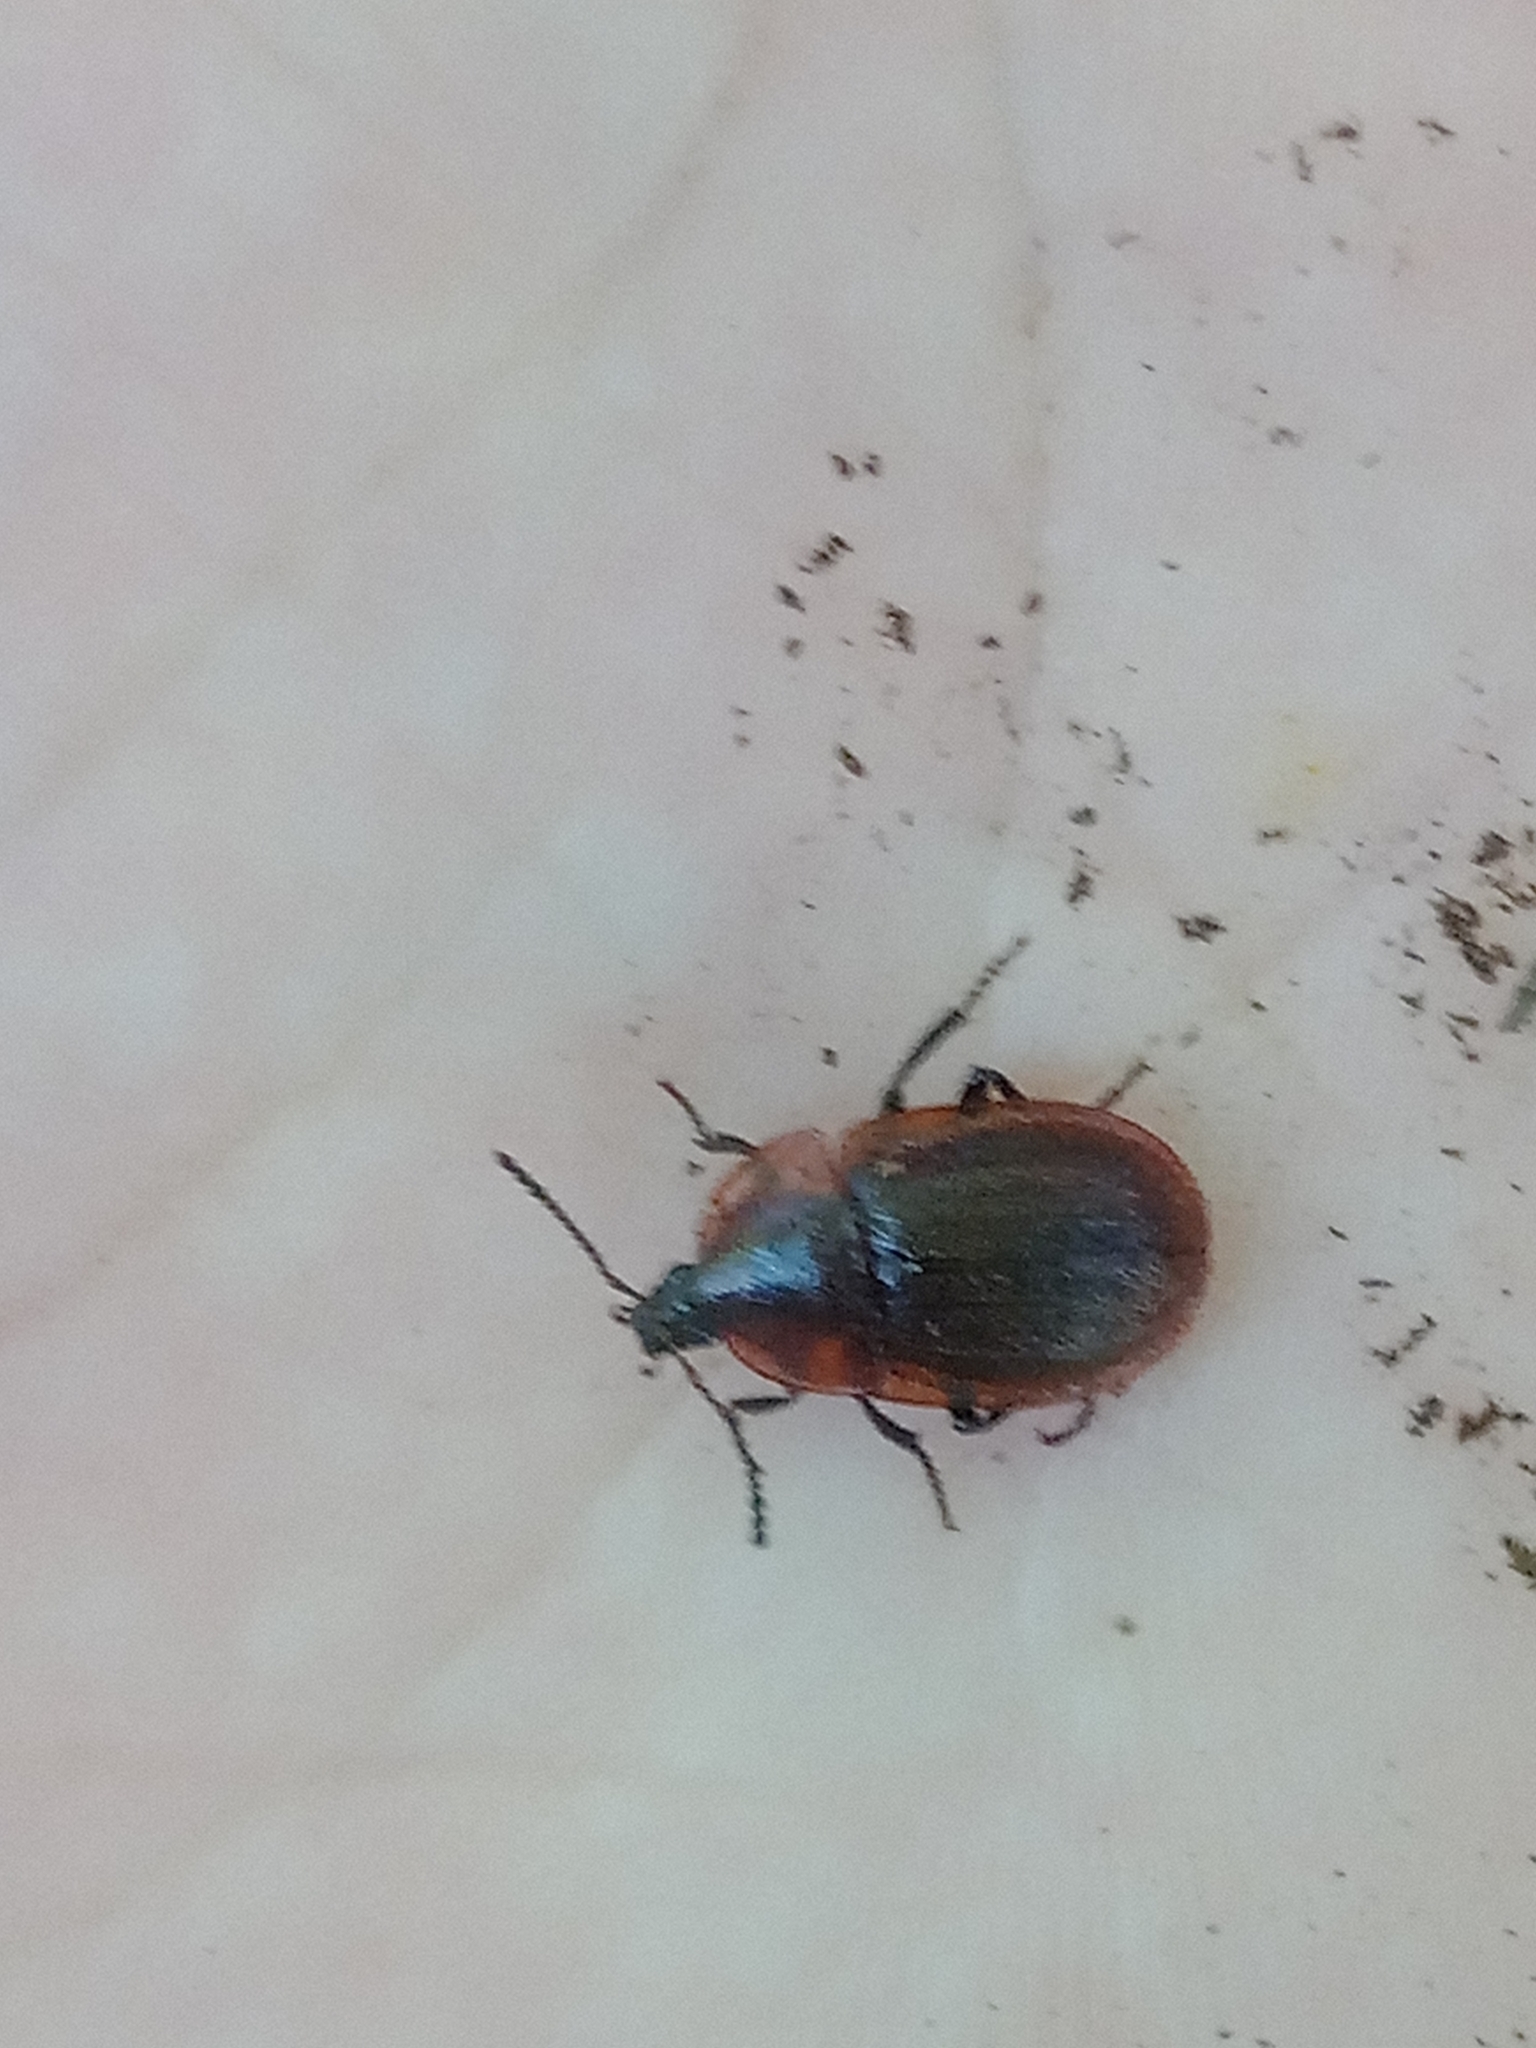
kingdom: Animalia
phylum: Arthropoda
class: Insecta
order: Coleoptera
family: Staphylinidae
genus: Silpha
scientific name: Silpha atrata
